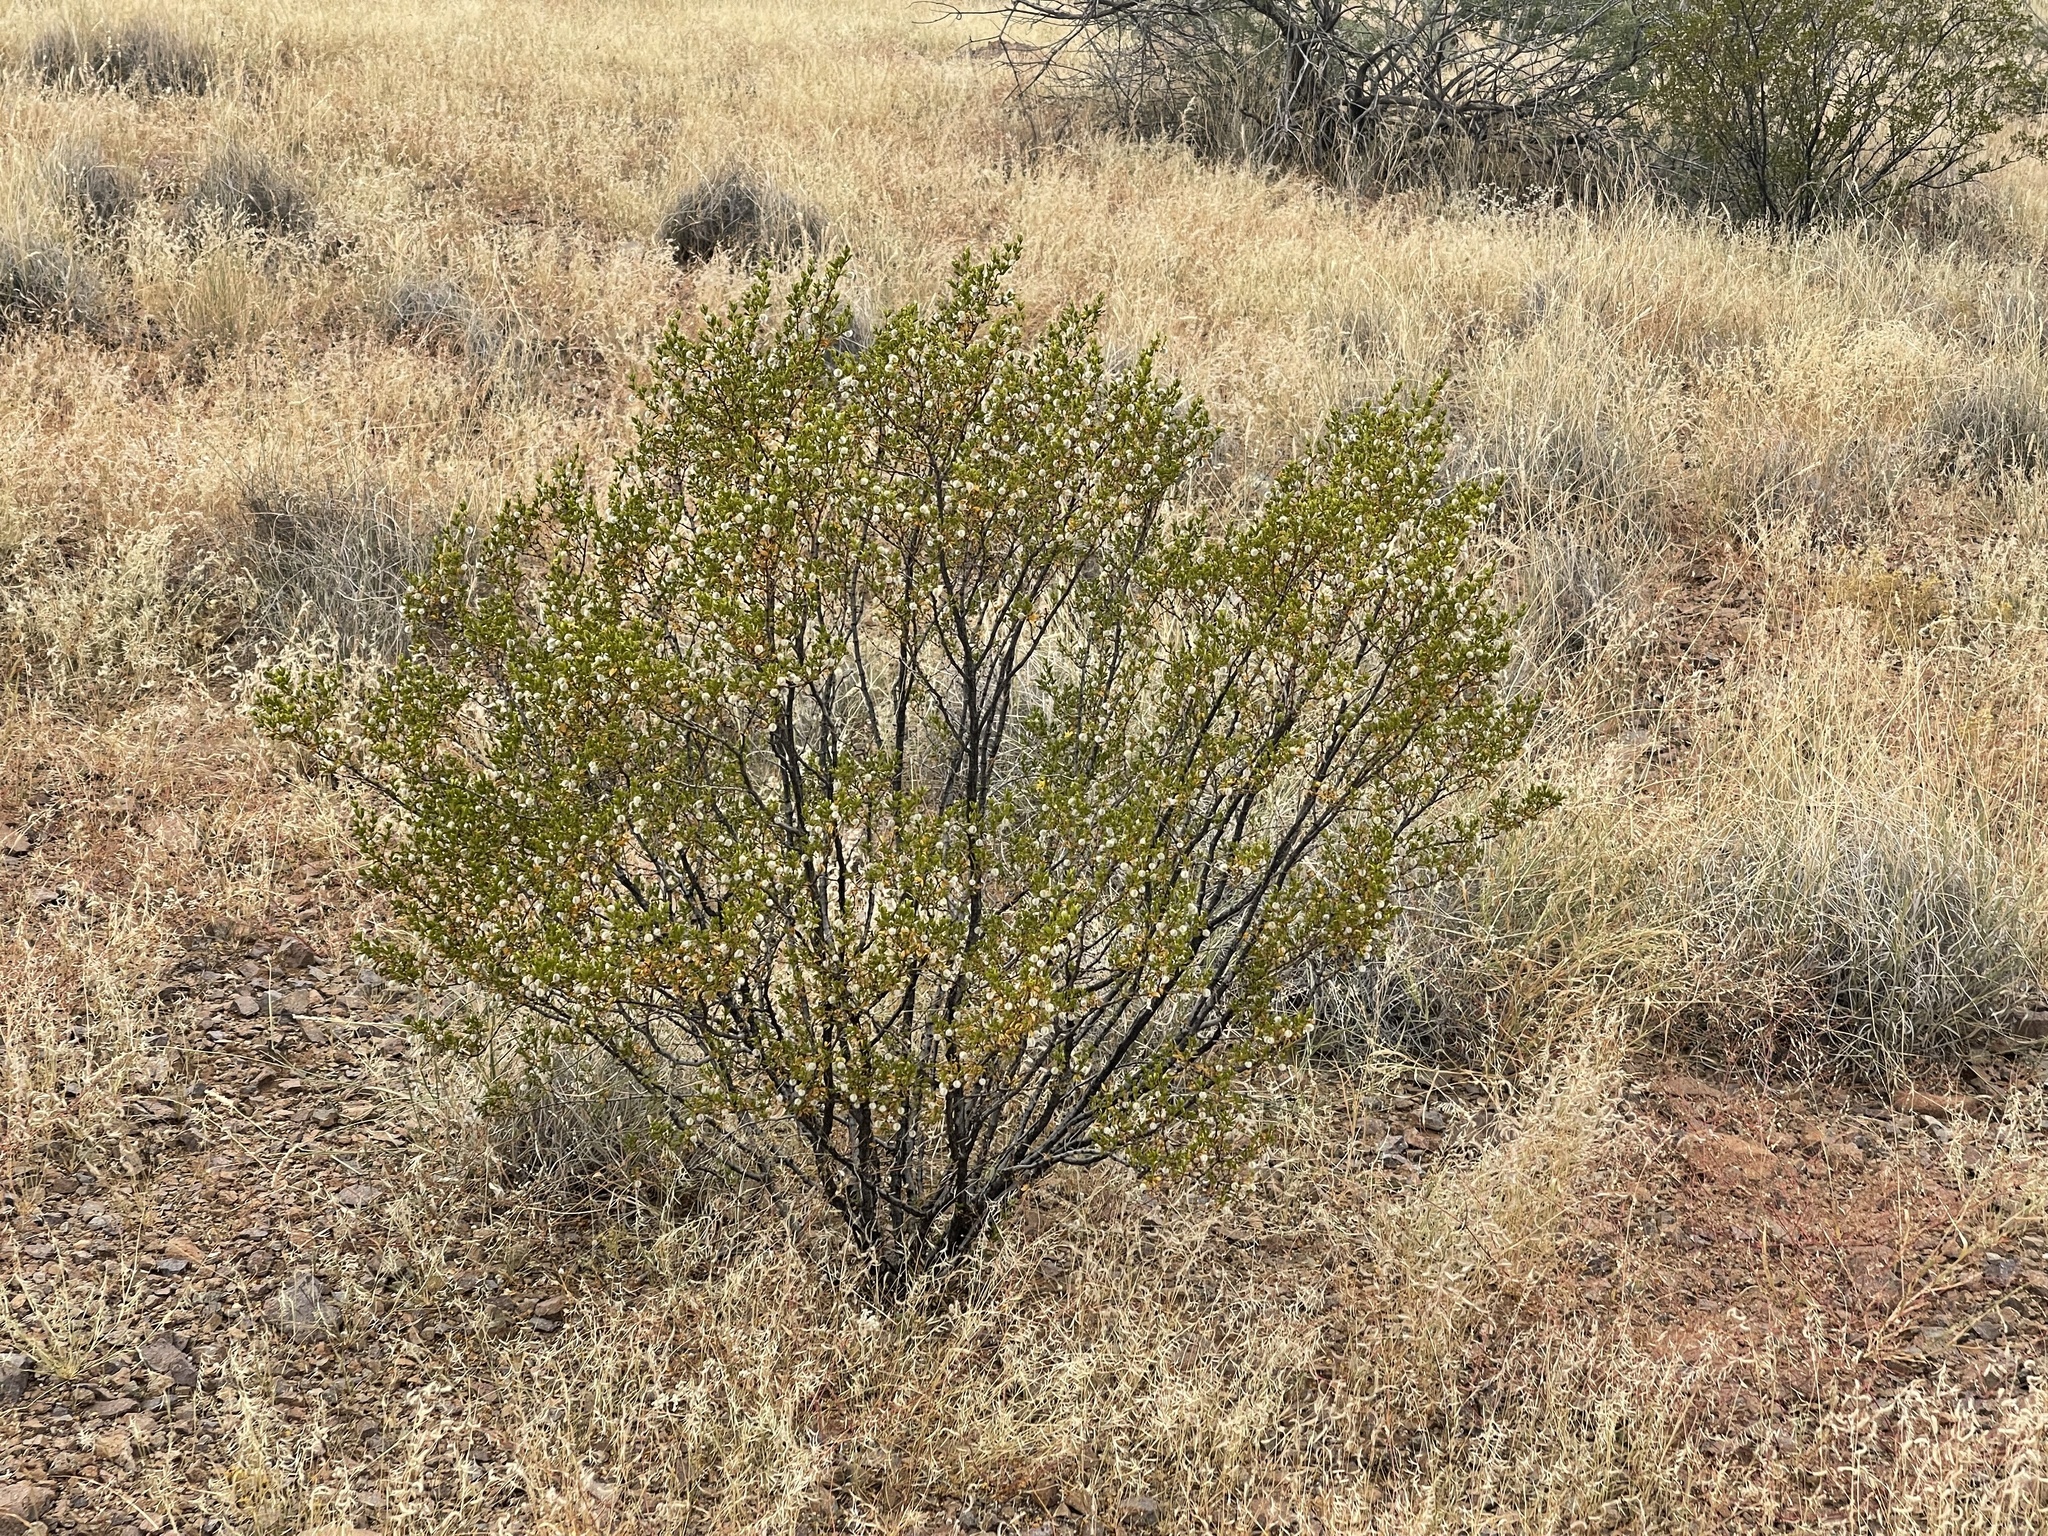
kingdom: Plantae
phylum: Tracheophyta
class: Magnoliopsida
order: Zygophyllales
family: Zygophyllaceae
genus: Larrea
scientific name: Larrea tridentata
